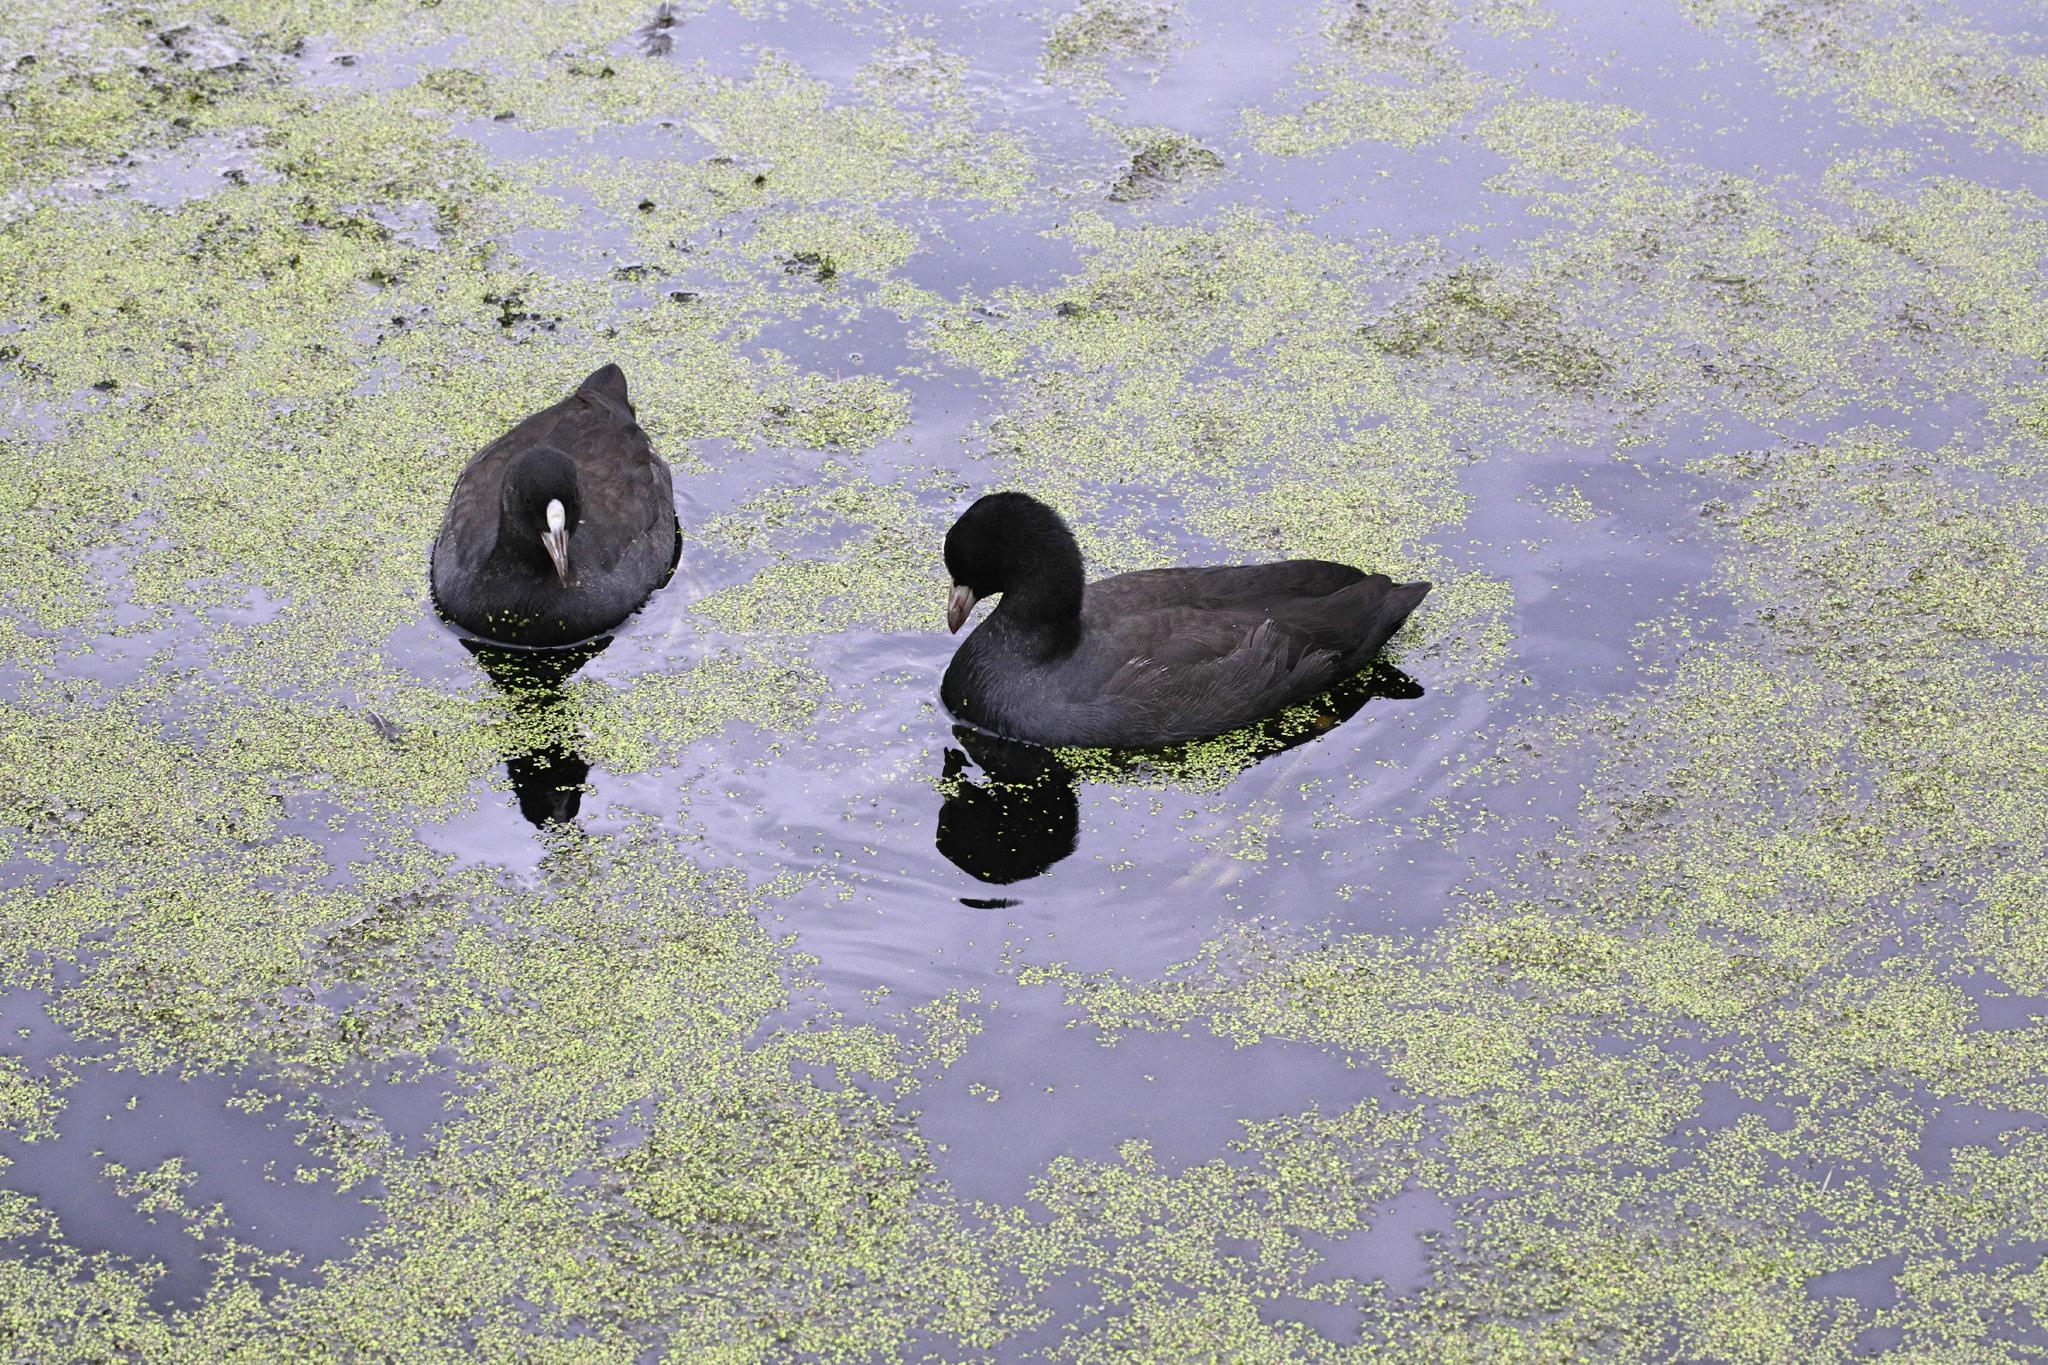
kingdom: Animalia
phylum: Chordata
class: Aves
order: Gruiformes
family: Rallidae
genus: Fulica
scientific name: Fulica atra
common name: Eurasian coot
